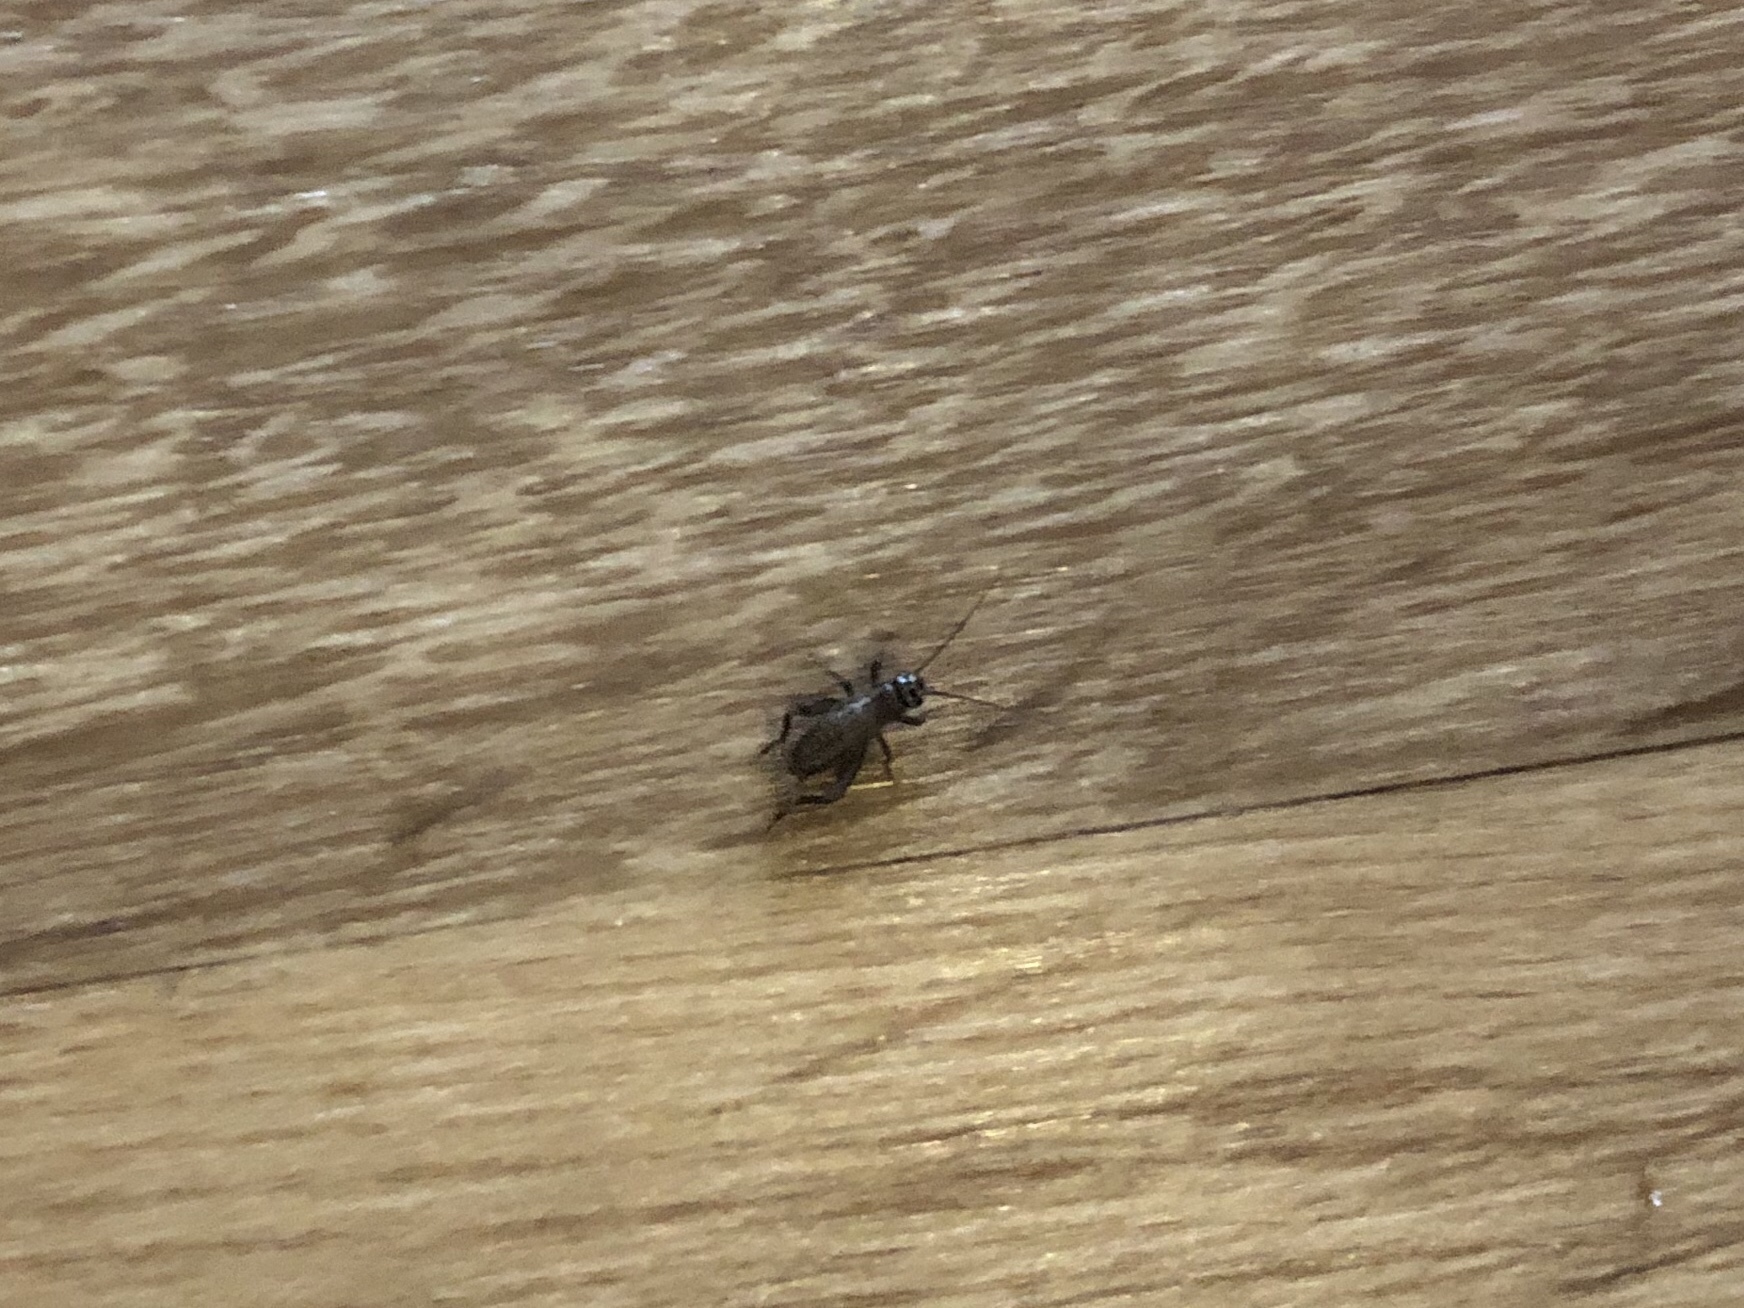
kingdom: Animalia
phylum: Arthropoda
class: Insecta
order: Orthoptera
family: Trigonidiidae
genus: Nemobius
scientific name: Nemobius sylvestris
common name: Wood-cricket
